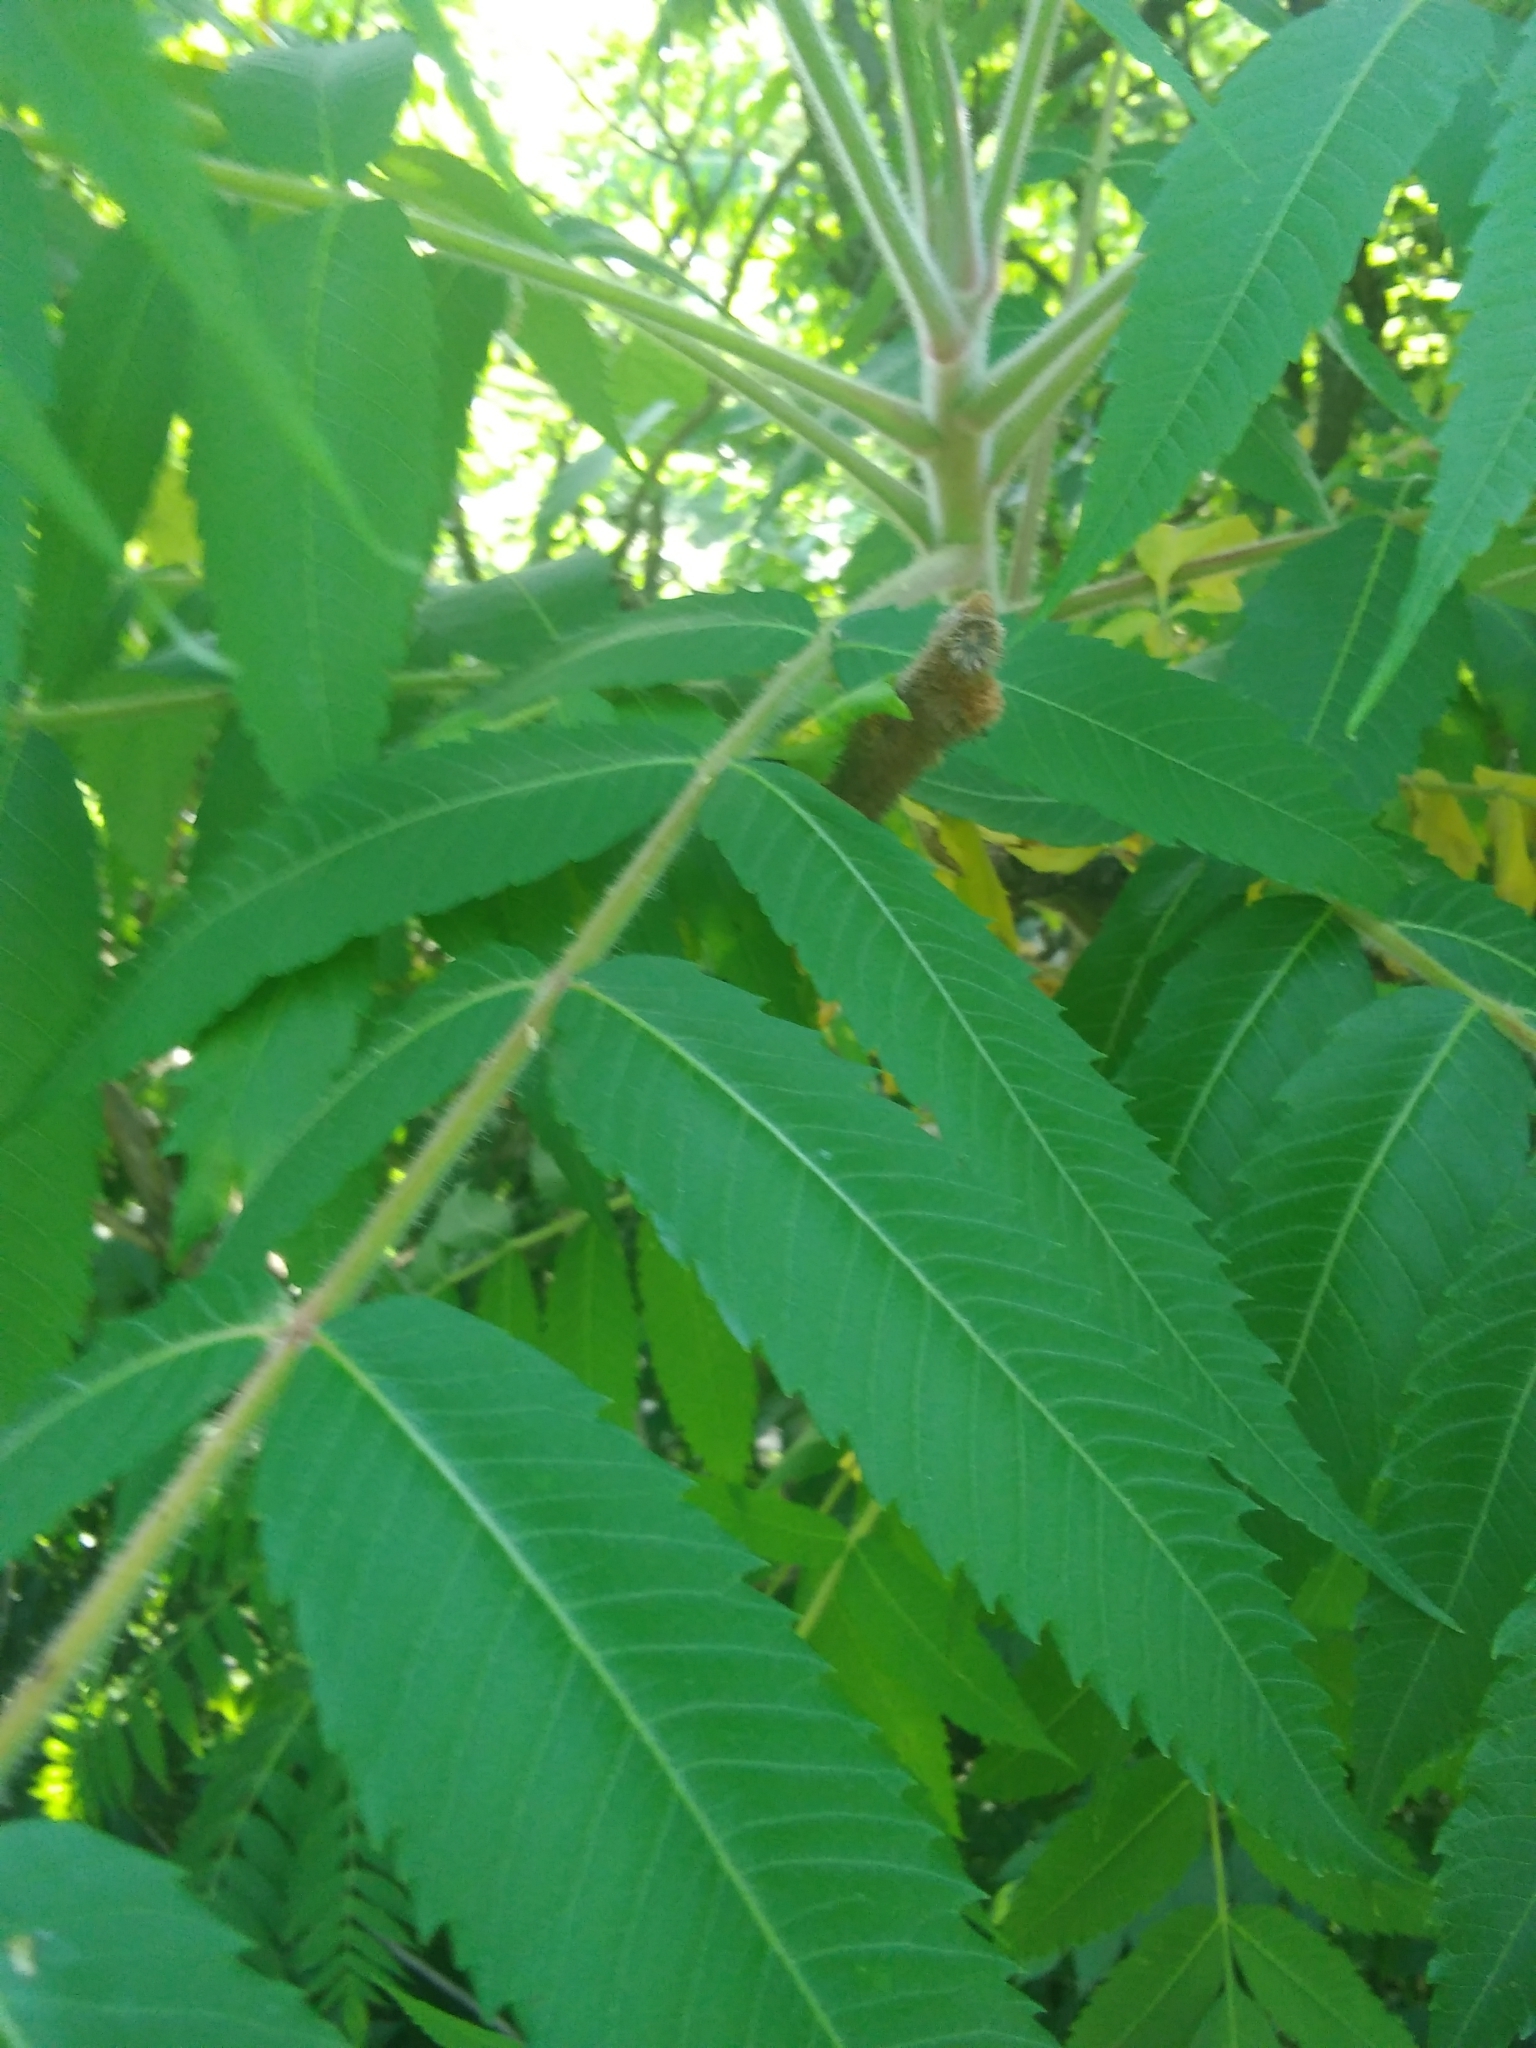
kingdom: Plantae
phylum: Tracheophyta
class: Magnoliopsida
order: Sapindales
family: Anacardiaceae
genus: Rhus
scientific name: Rhus typhina
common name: Staghorn sumac
